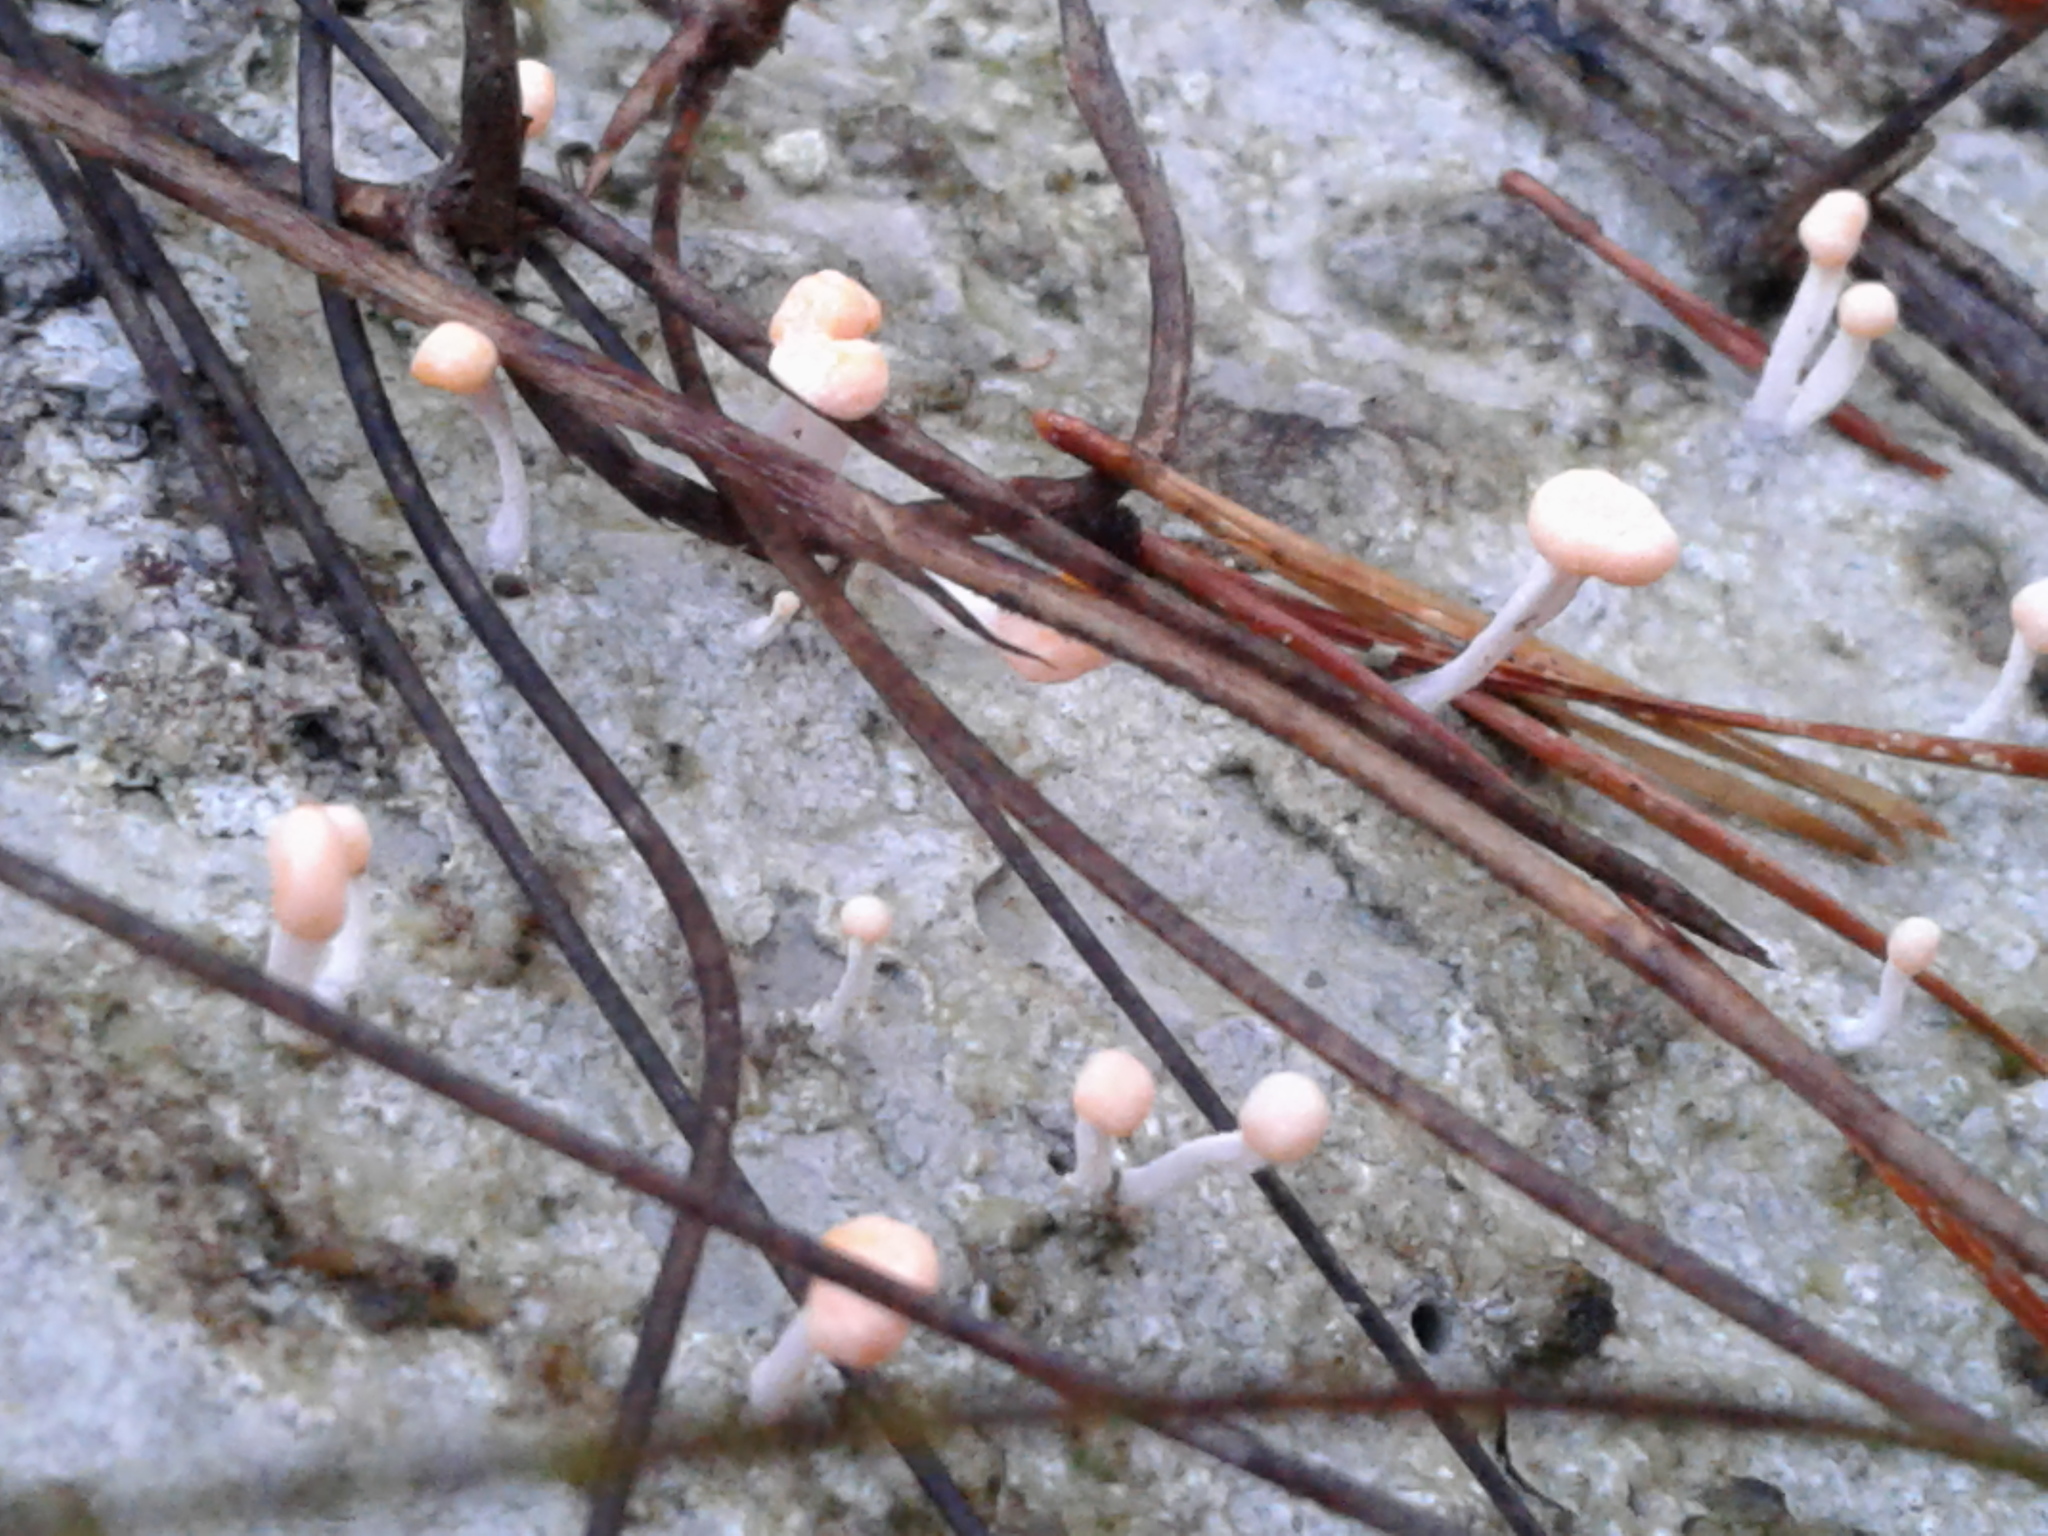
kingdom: Fungi
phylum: Ascomycota
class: Lecanoromycetes
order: Pertusariales
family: Icmadophilaceae
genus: Dibaeis
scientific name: Dibaeis arcuata
